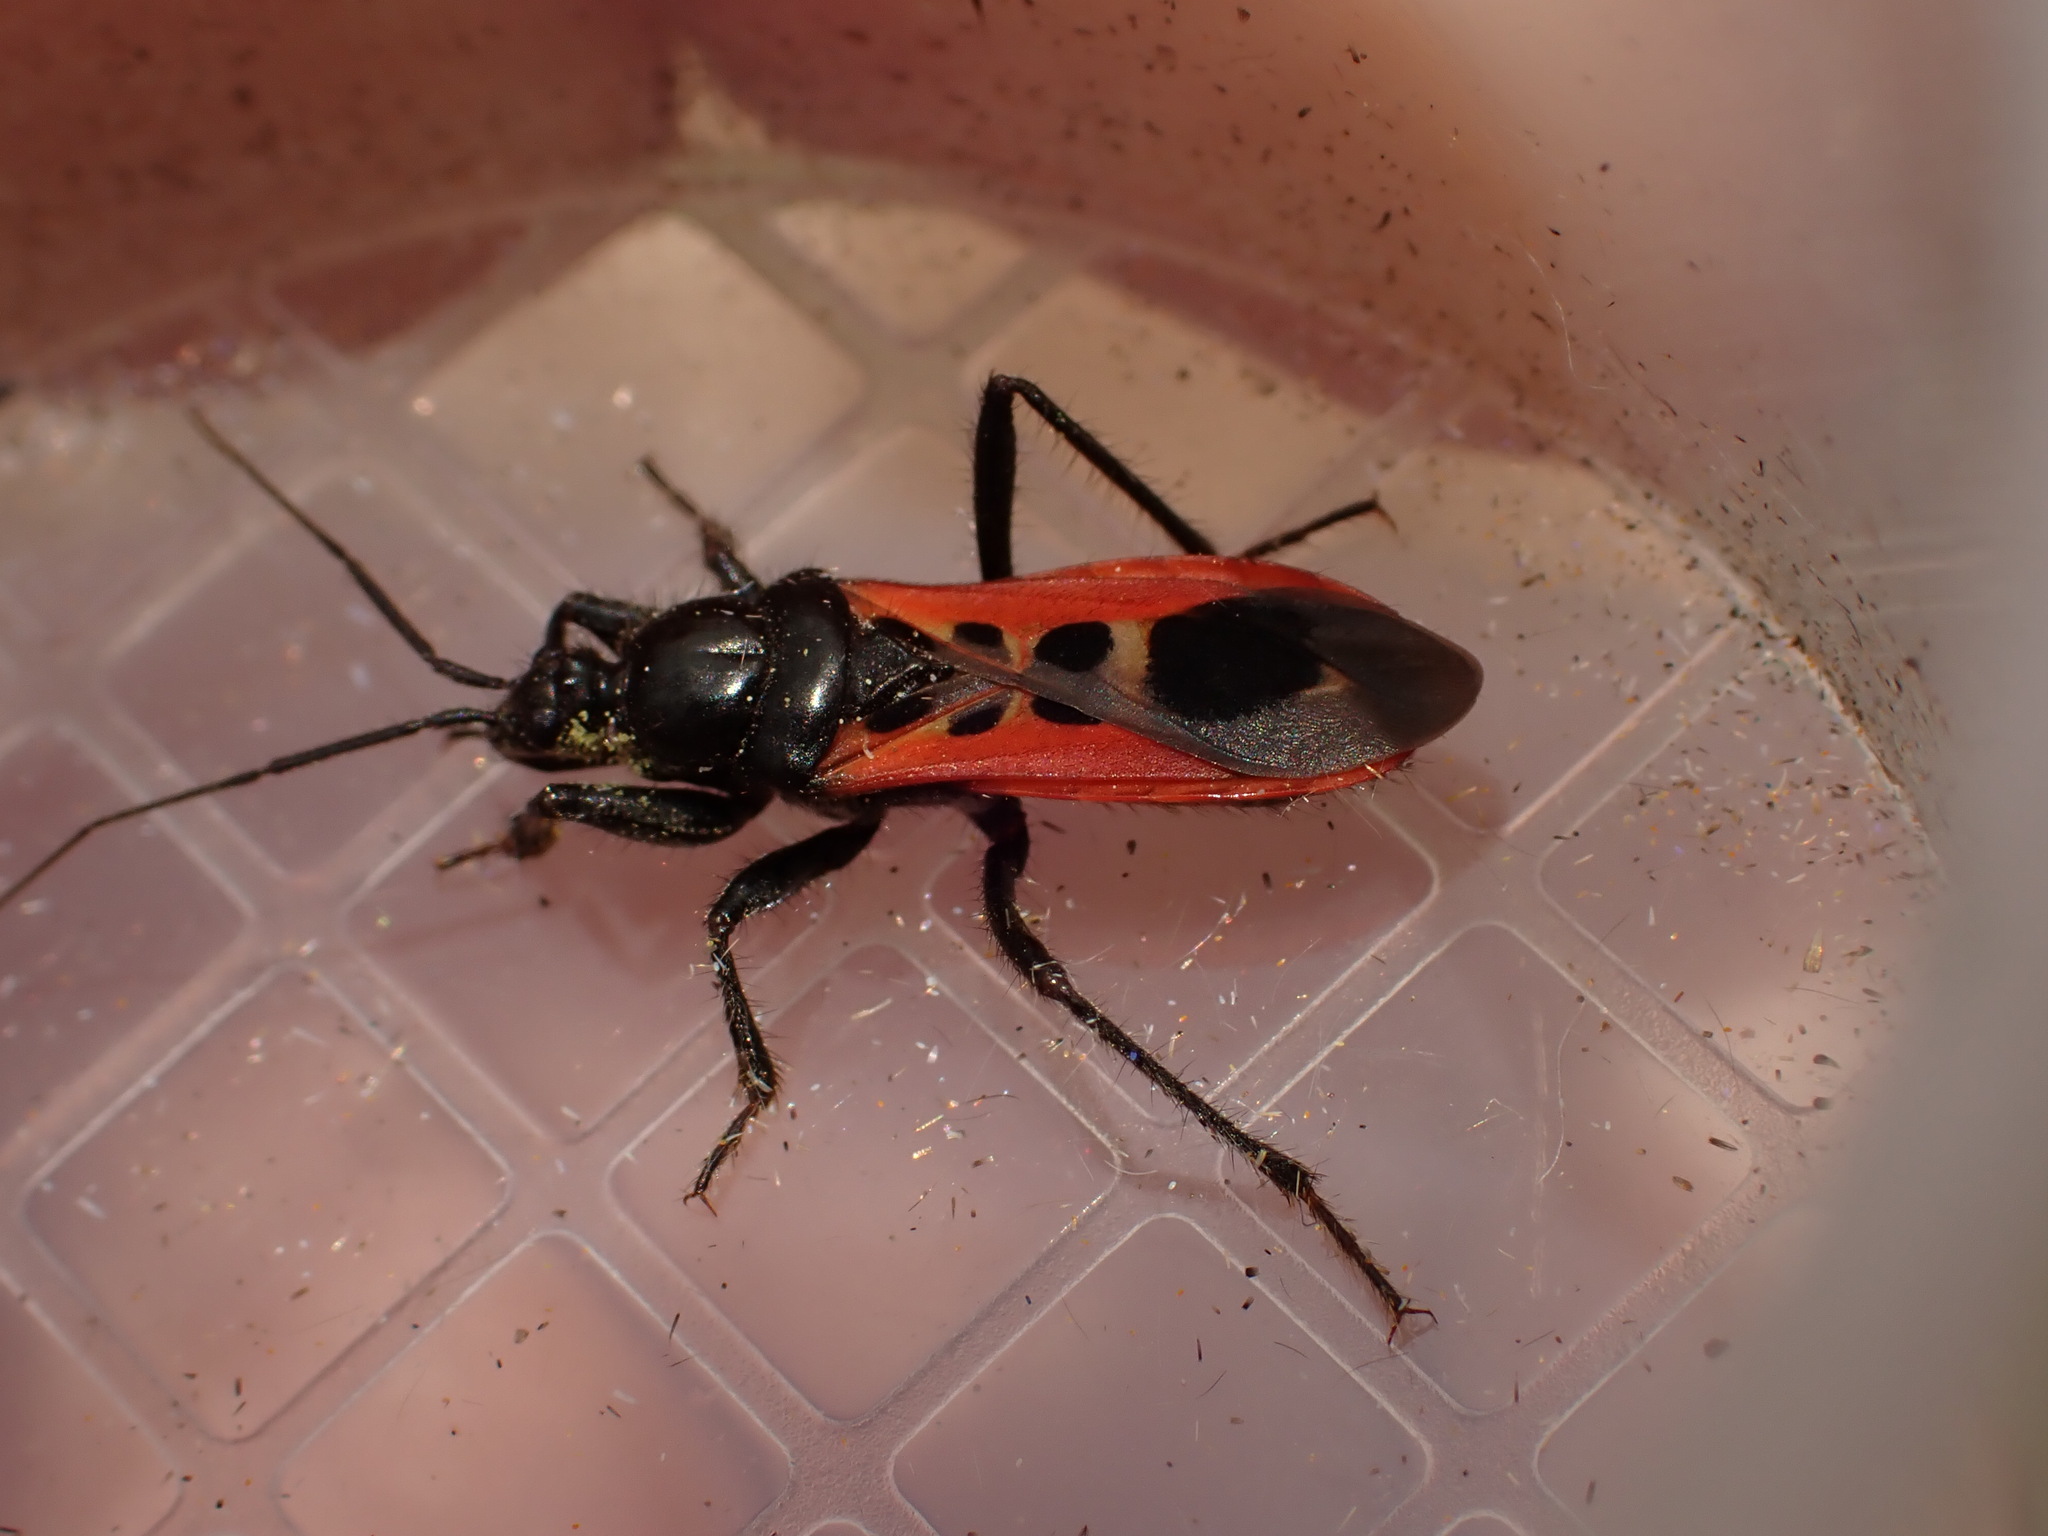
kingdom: Animalia
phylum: Arthropoda
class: Insecta
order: Hemiptera
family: Reduviidae
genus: Peirates
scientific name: Peirates stridulus
